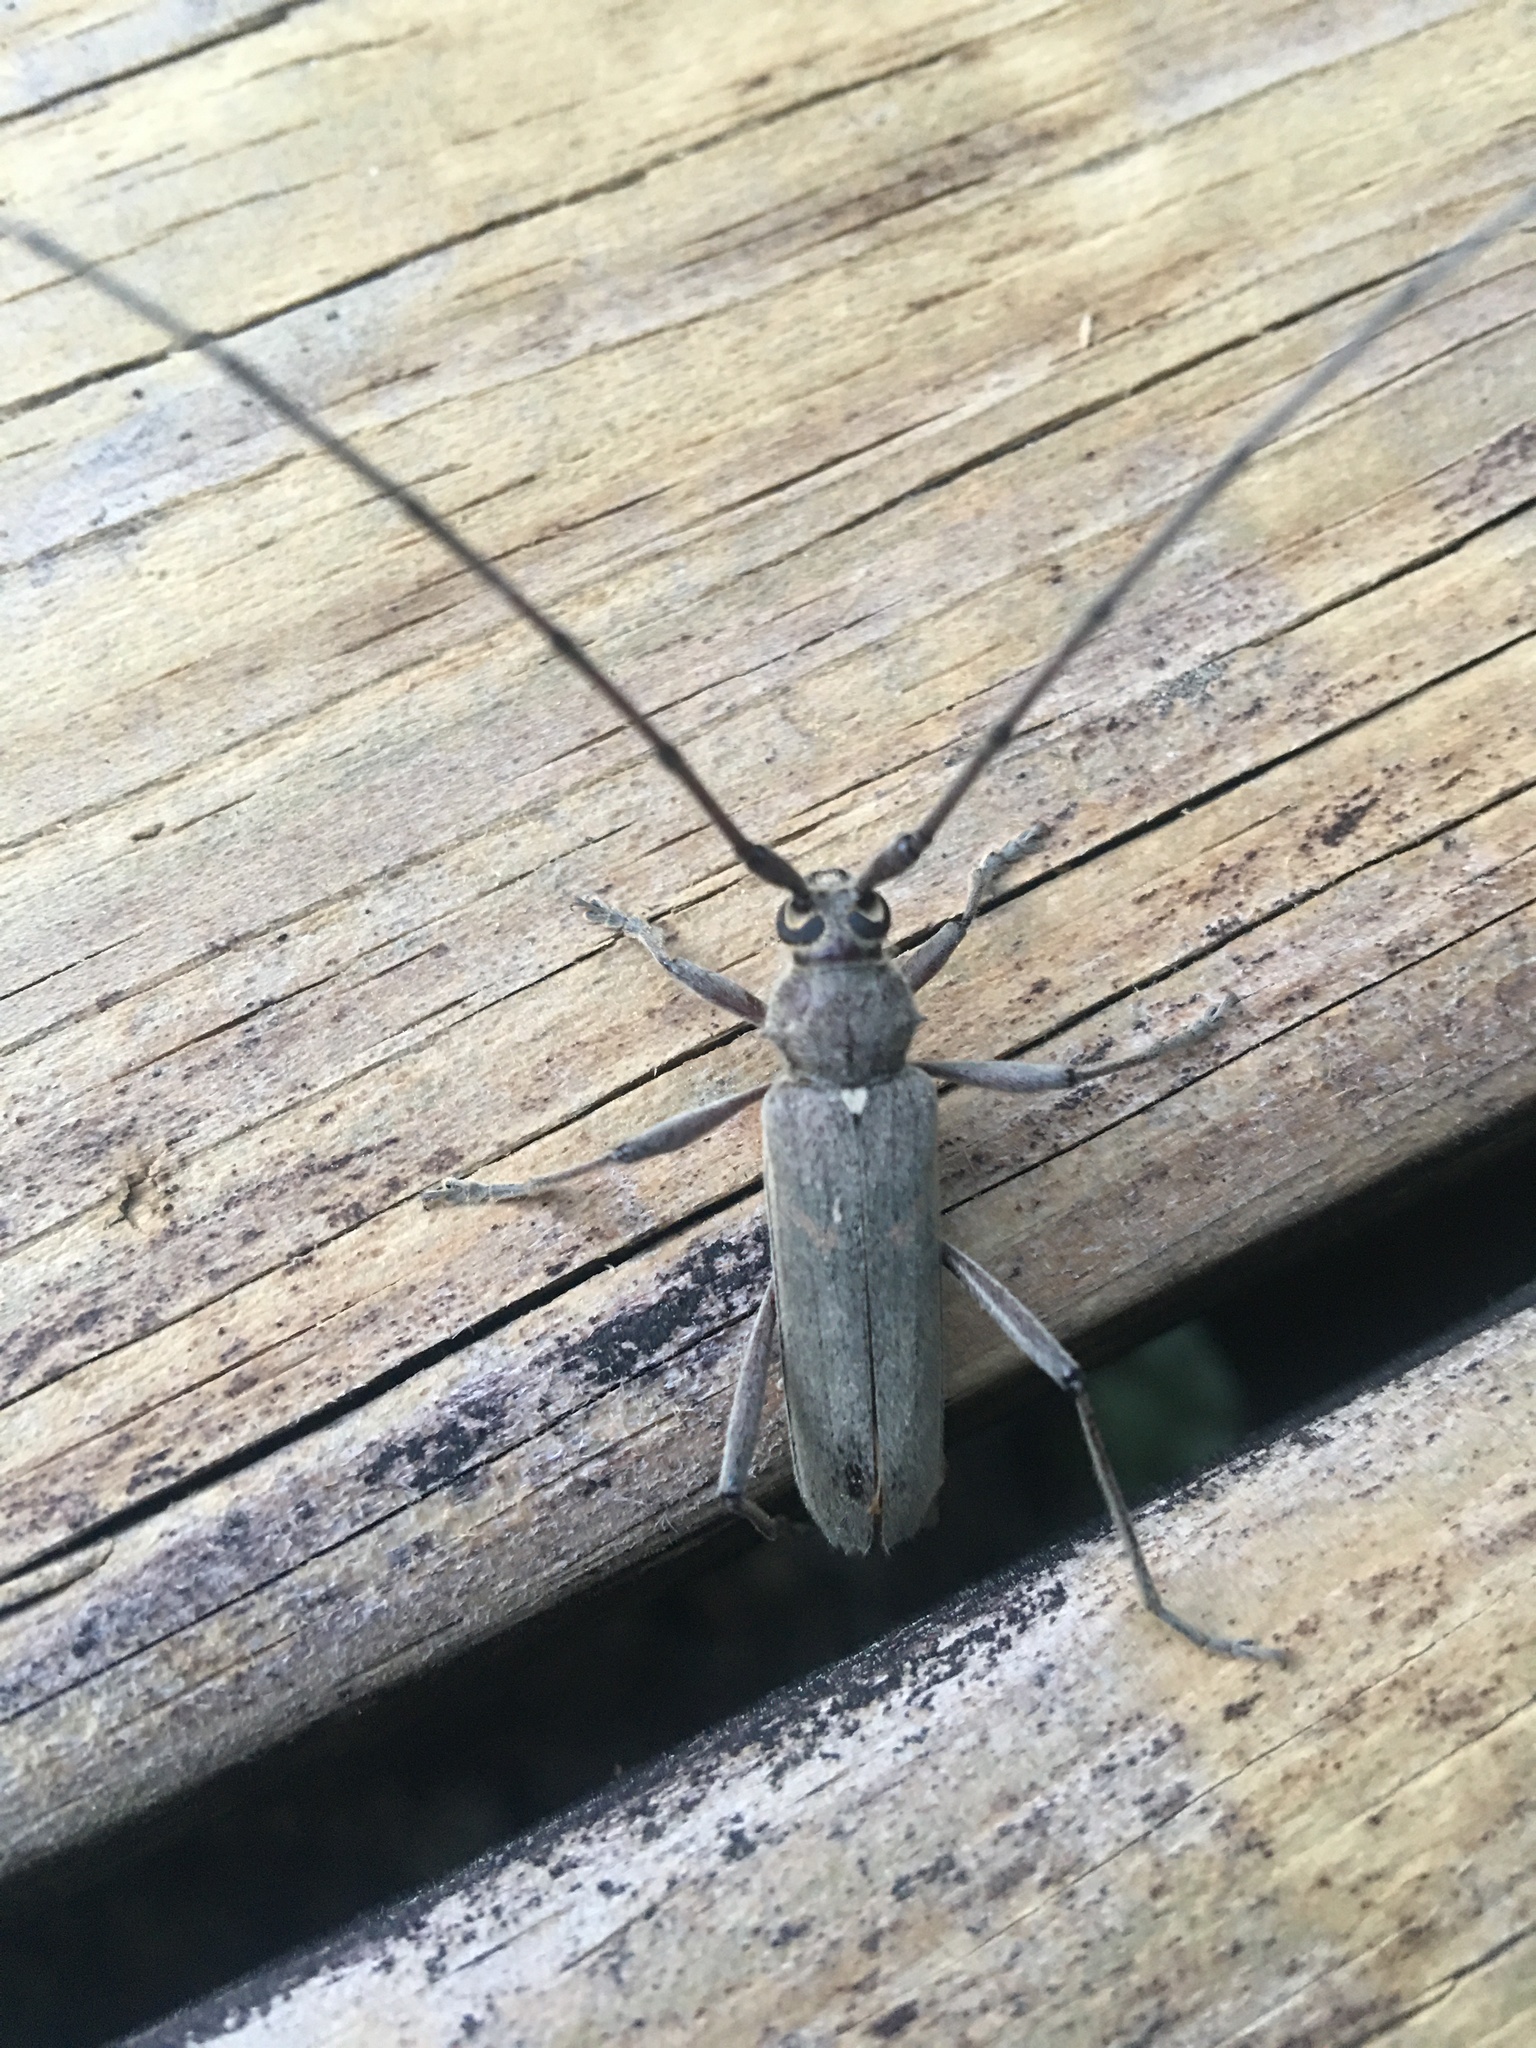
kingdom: Animalia
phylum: Arthropoda
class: Insecta
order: Coleoptera
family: Cerambycidae
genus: Knulliana
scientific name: Knulliana cincta
